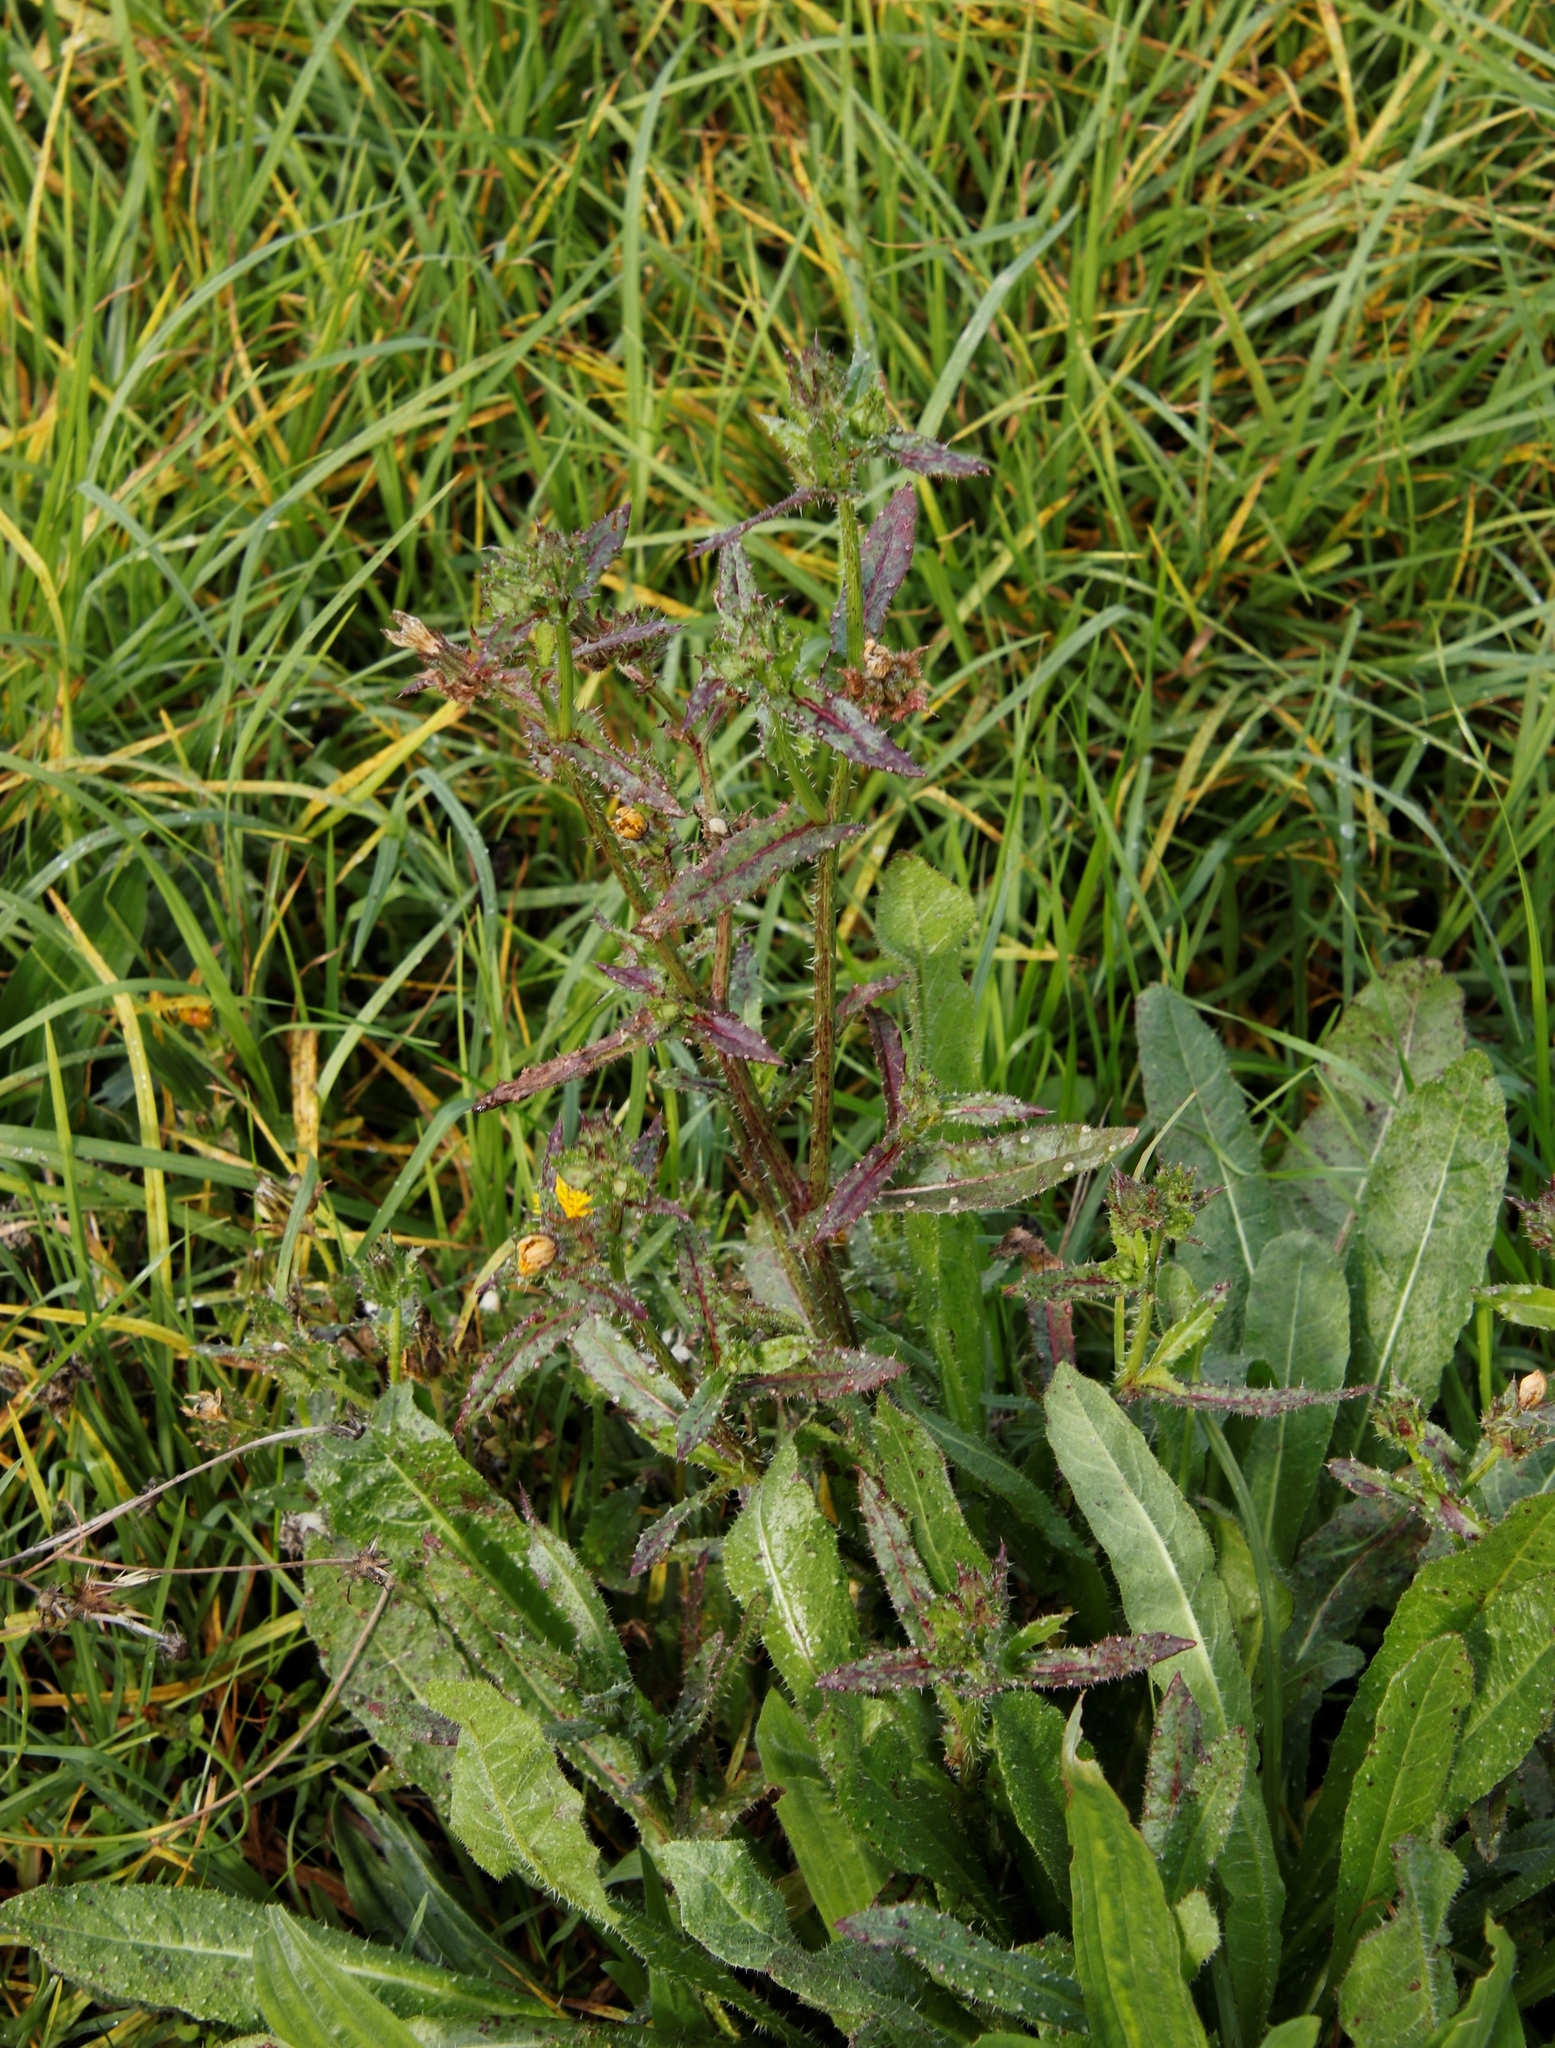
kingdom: Plantae
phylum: Tracheophyta
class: Magnoliopsida
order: Asterales
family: Asteraceae
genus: Helminthotheca
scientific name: Helminthotheca echioides
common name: Ox-tongue
